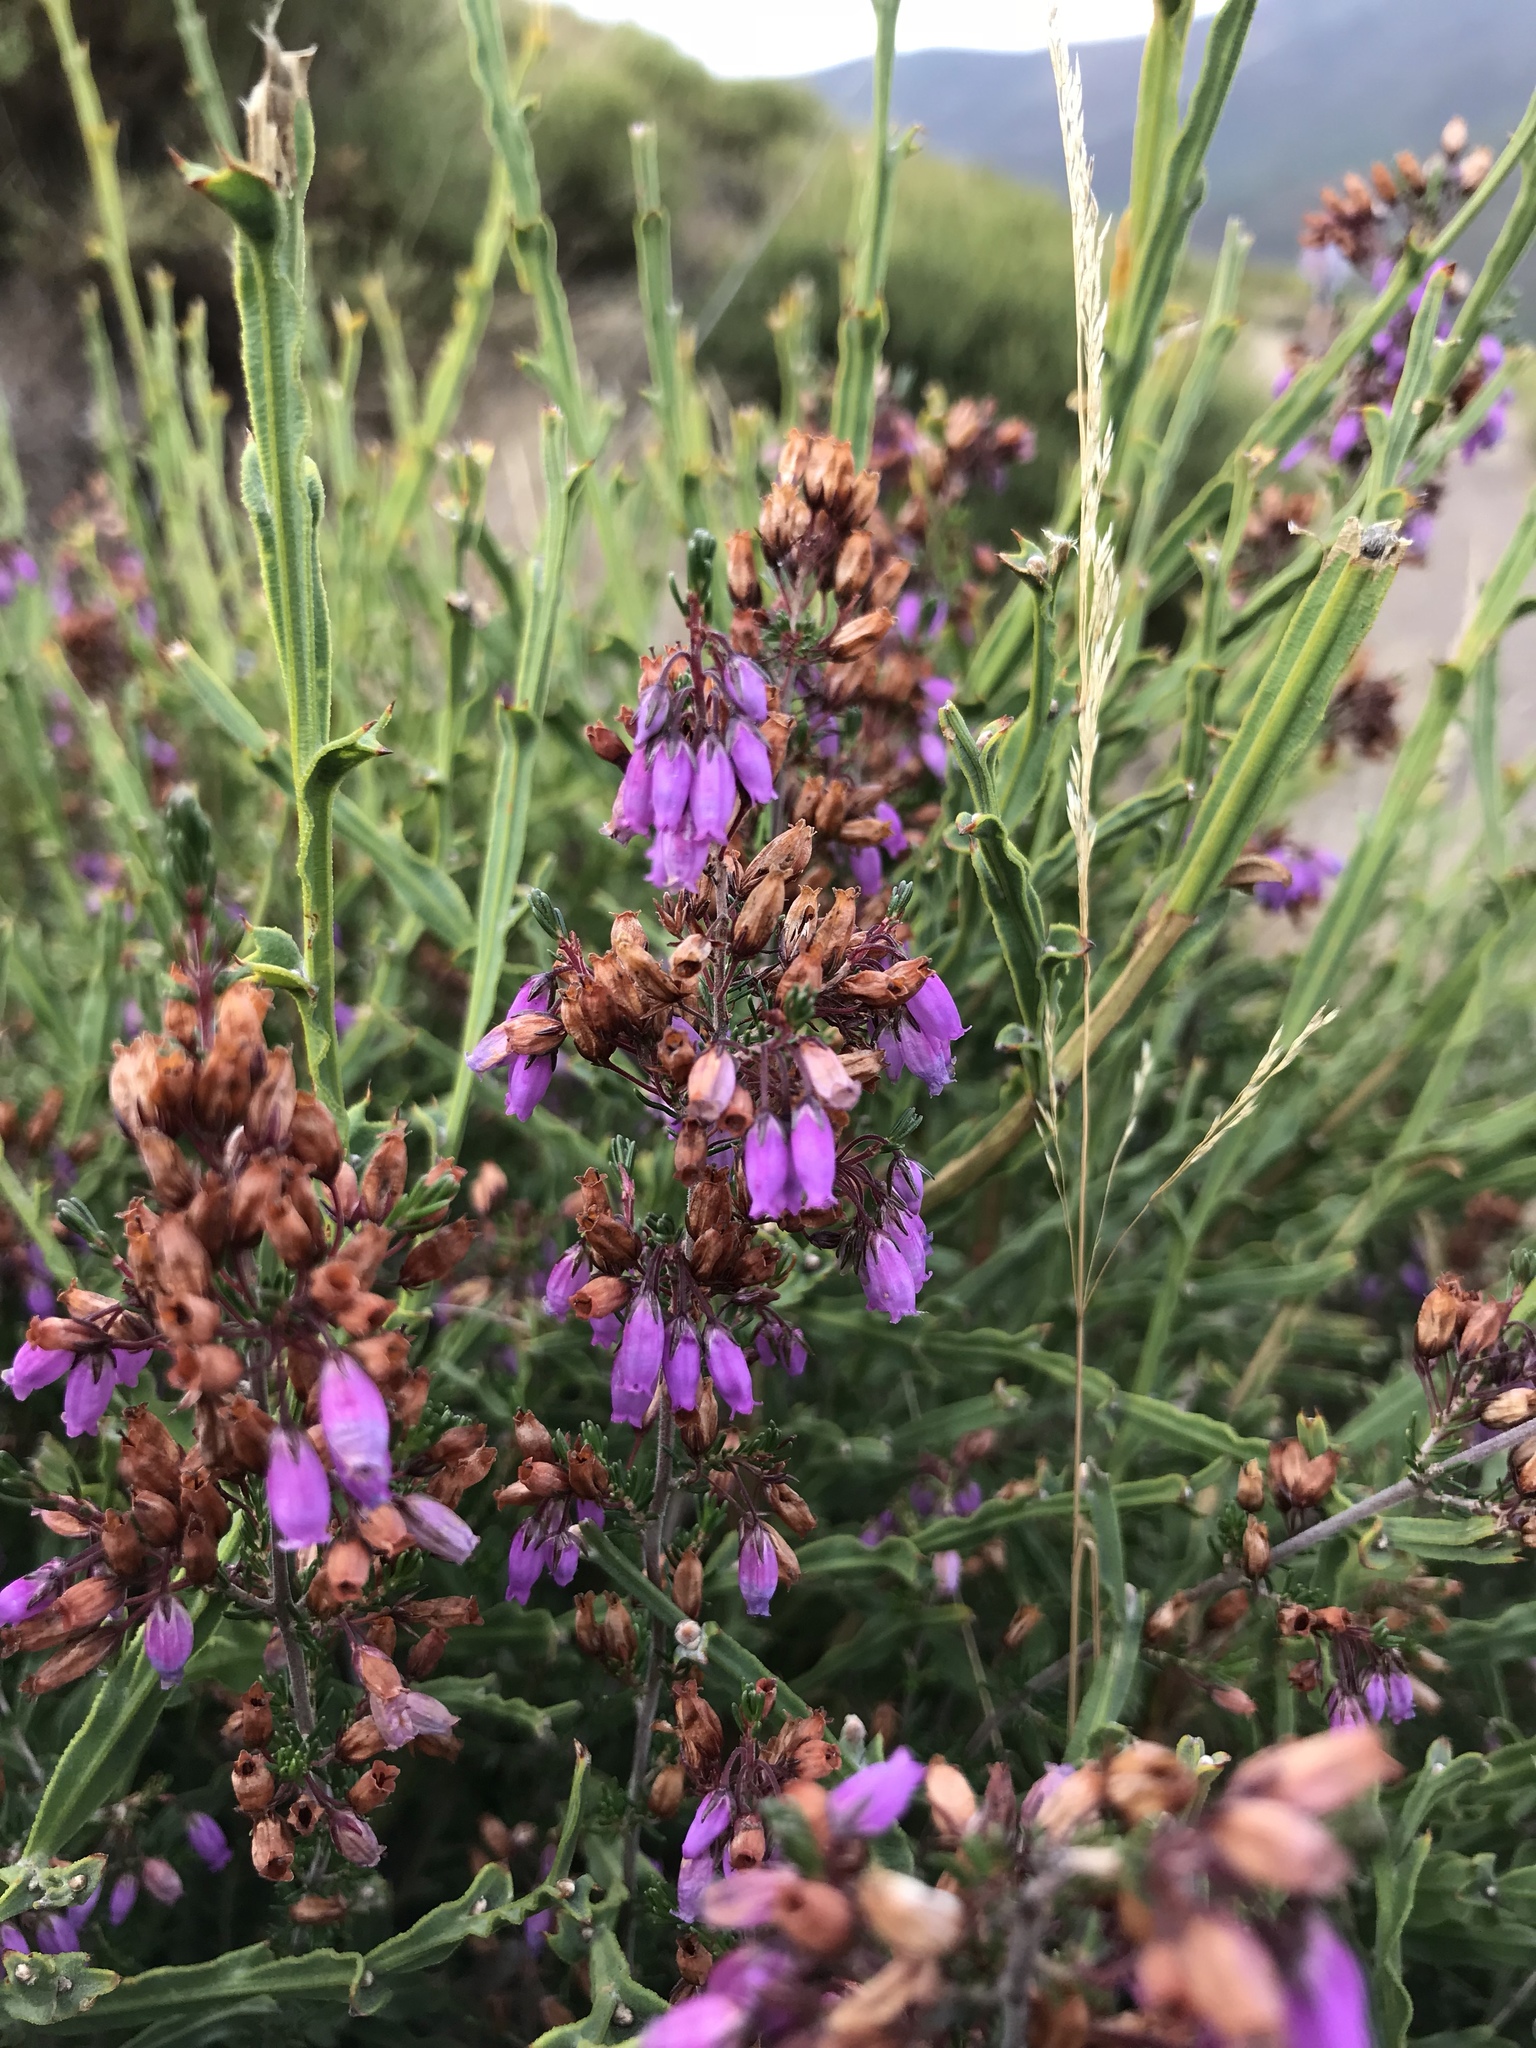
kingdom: Plantae
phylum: Tracheophyta
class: Magnoliopsida
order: Ericales
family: Ericaceae
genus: Erica
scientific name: Erica cinerea
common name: Bell heather
